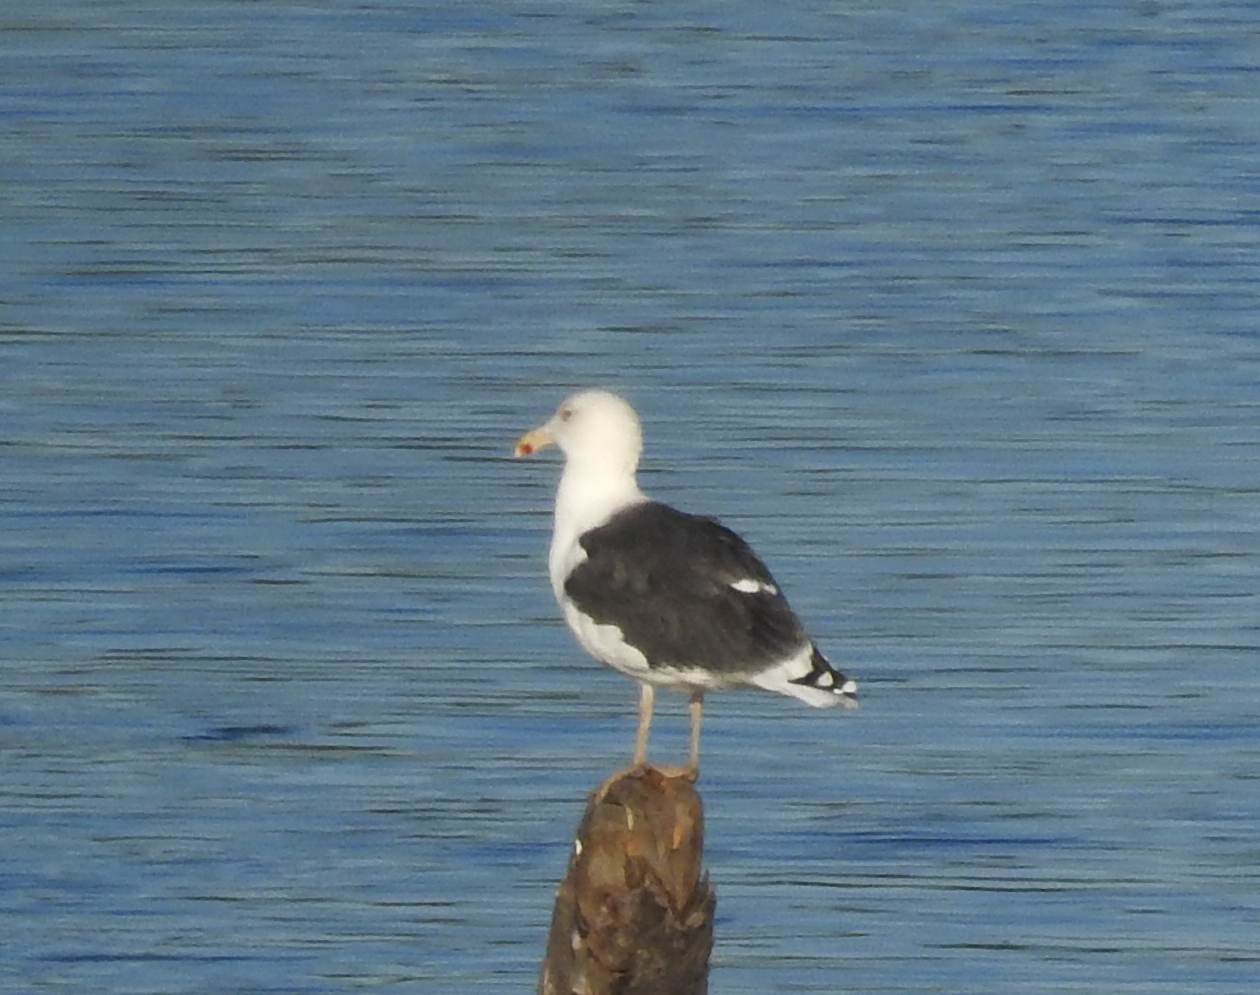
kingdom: Animalia
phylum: Chordata
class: Aves
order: Charadriiformes
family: Laridae
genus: Larus
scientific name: Larus marinus
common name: Great black-backed gull
